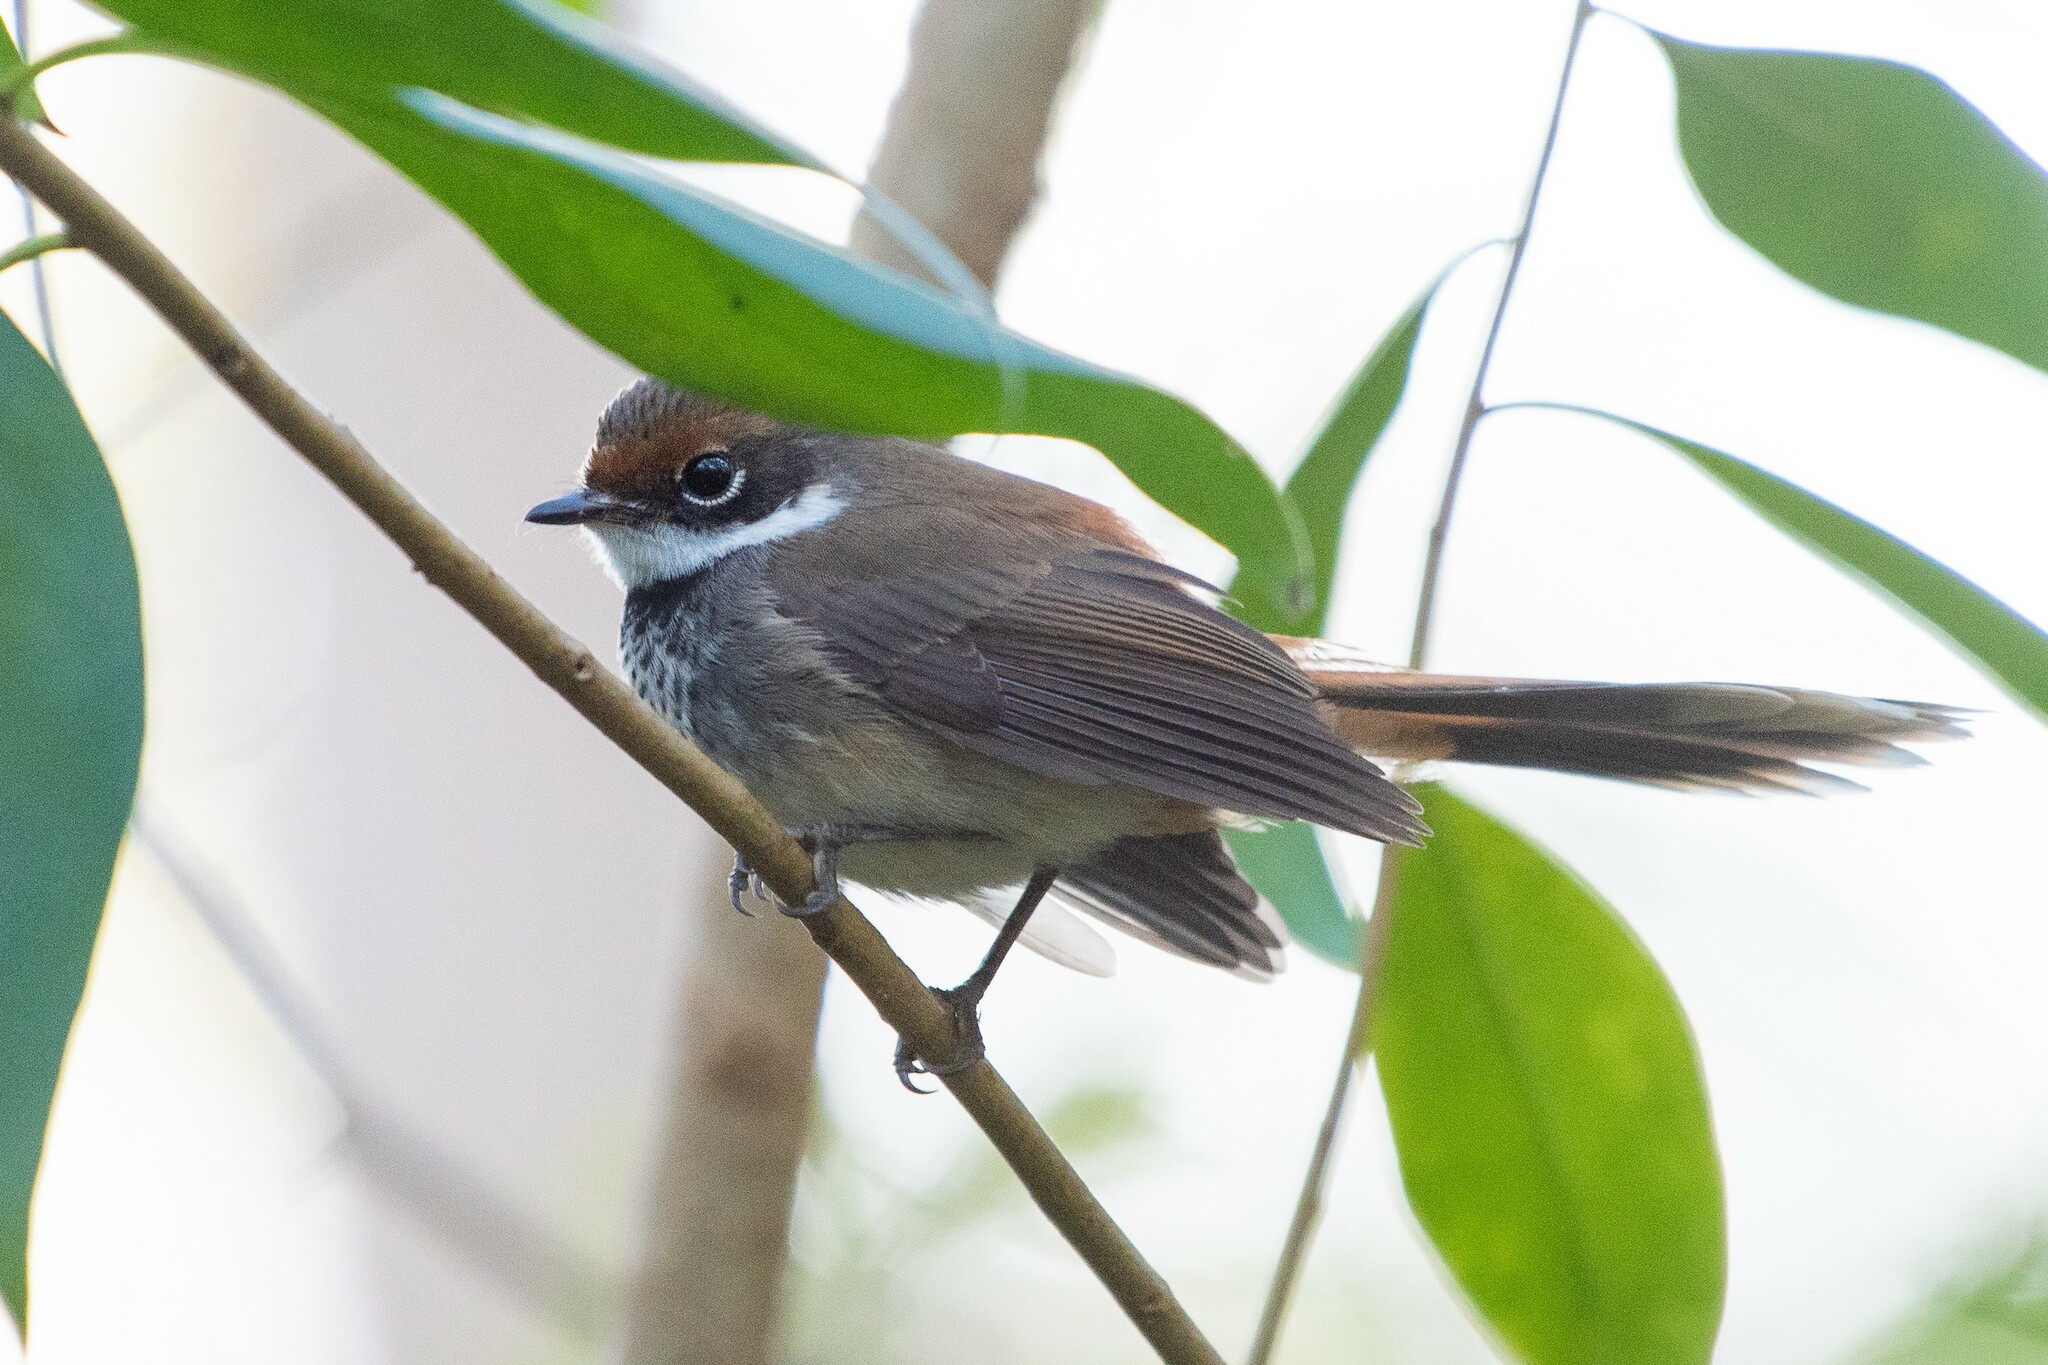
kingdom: Animalia
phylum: Chordata
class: Aves
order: Passeriformes
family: Rhipiduridae
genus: Rhipidura
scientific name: Rhipidura rufifrons
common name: Rufous fantail
